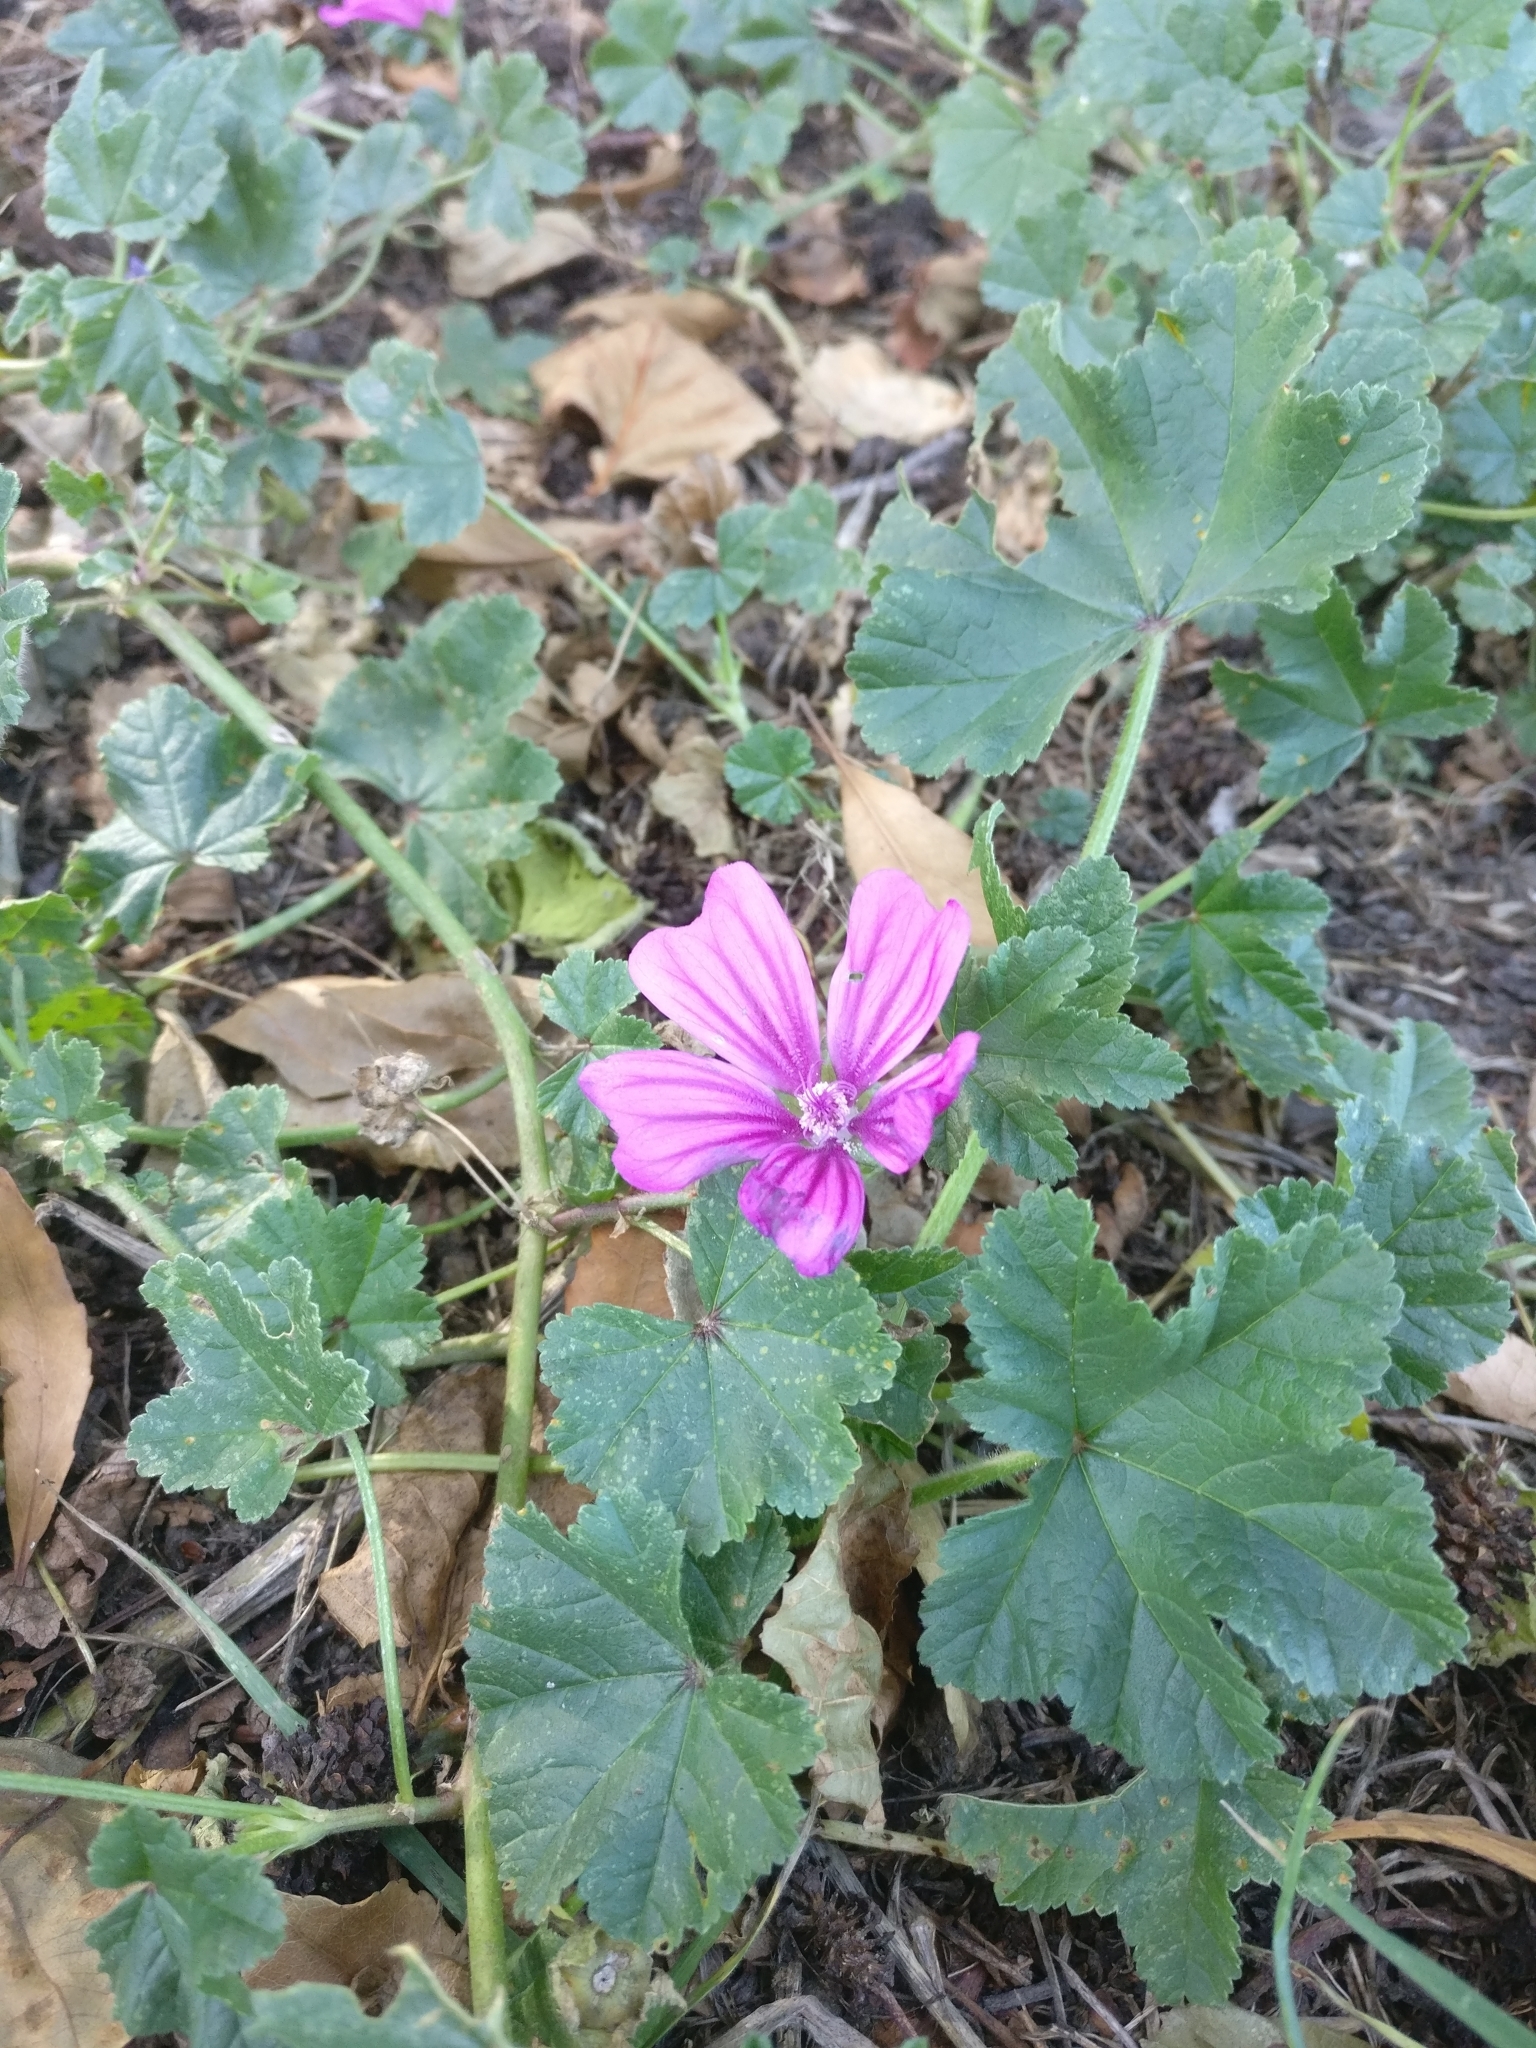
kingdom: Plantae
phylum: Tracheophyta
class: Magnoliopsida
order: Malvales
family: Malvaceae
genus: Malva
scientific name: Malva sylvestris
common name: Common mallow
